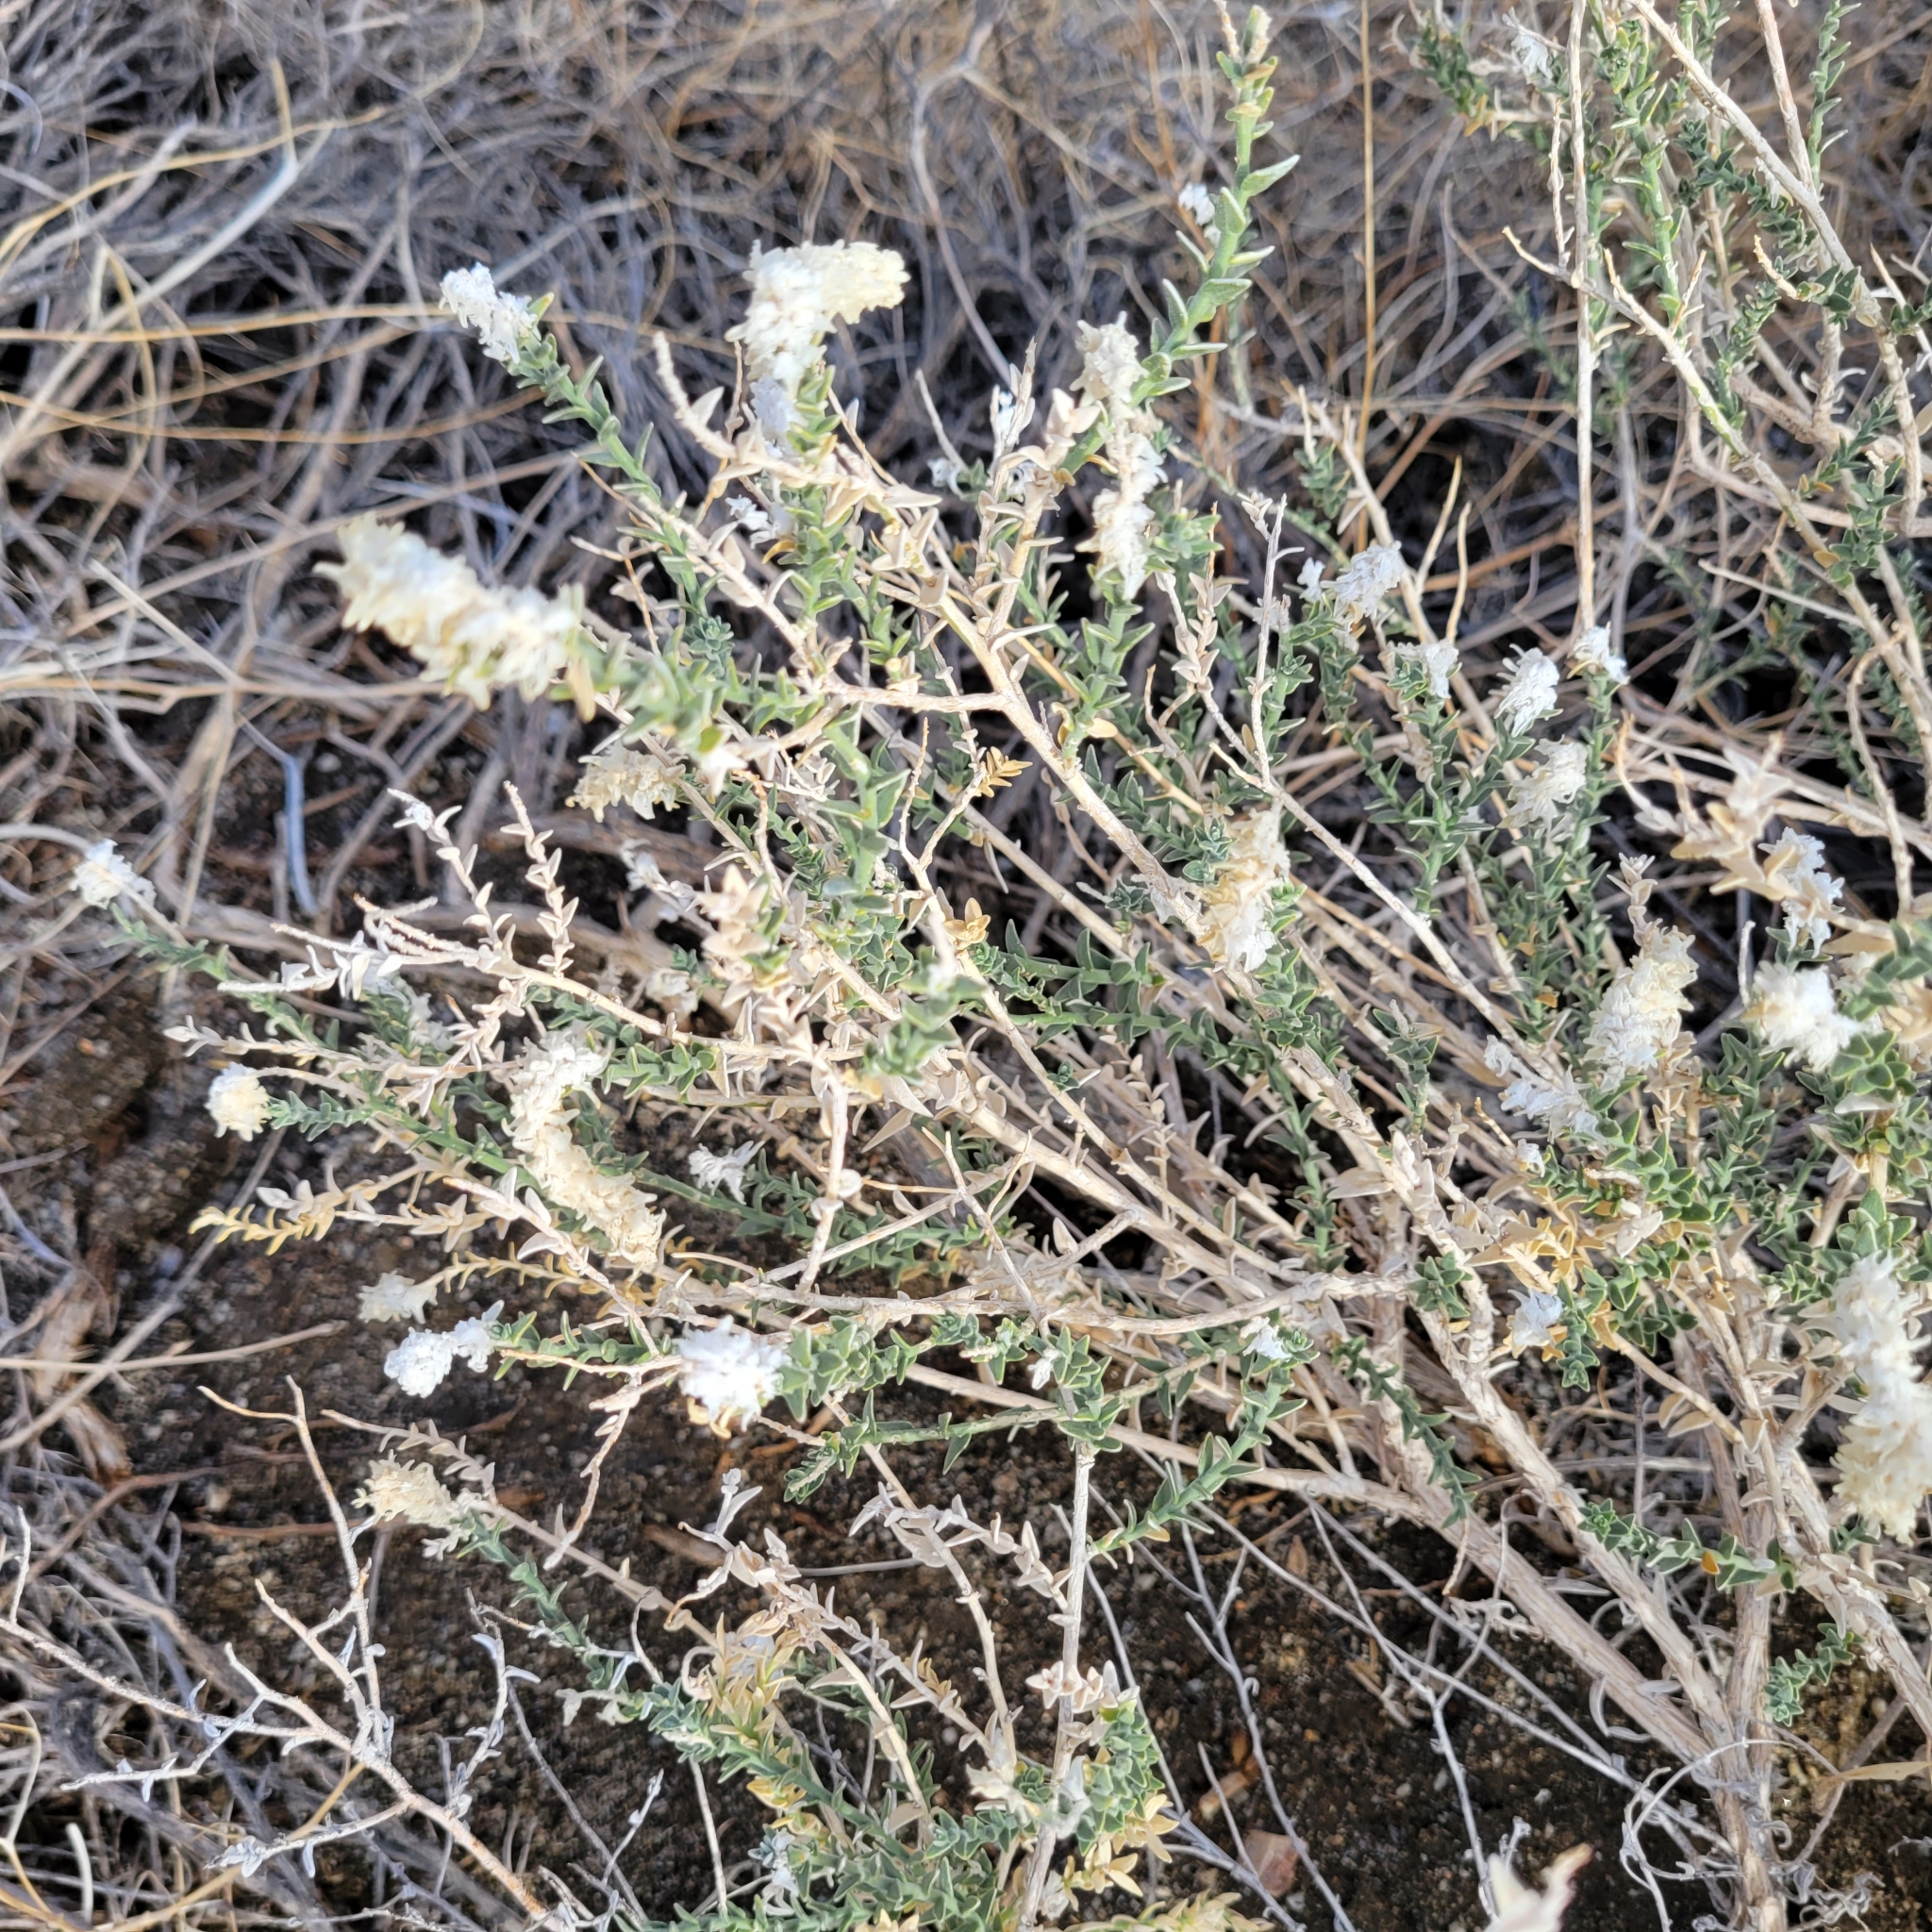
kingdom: Plantae
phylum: Tracheophyta
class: Magnoliopsida
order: Cornales
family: Loasaceae
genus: Petalonyx
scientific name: Petalonyx thurberi
